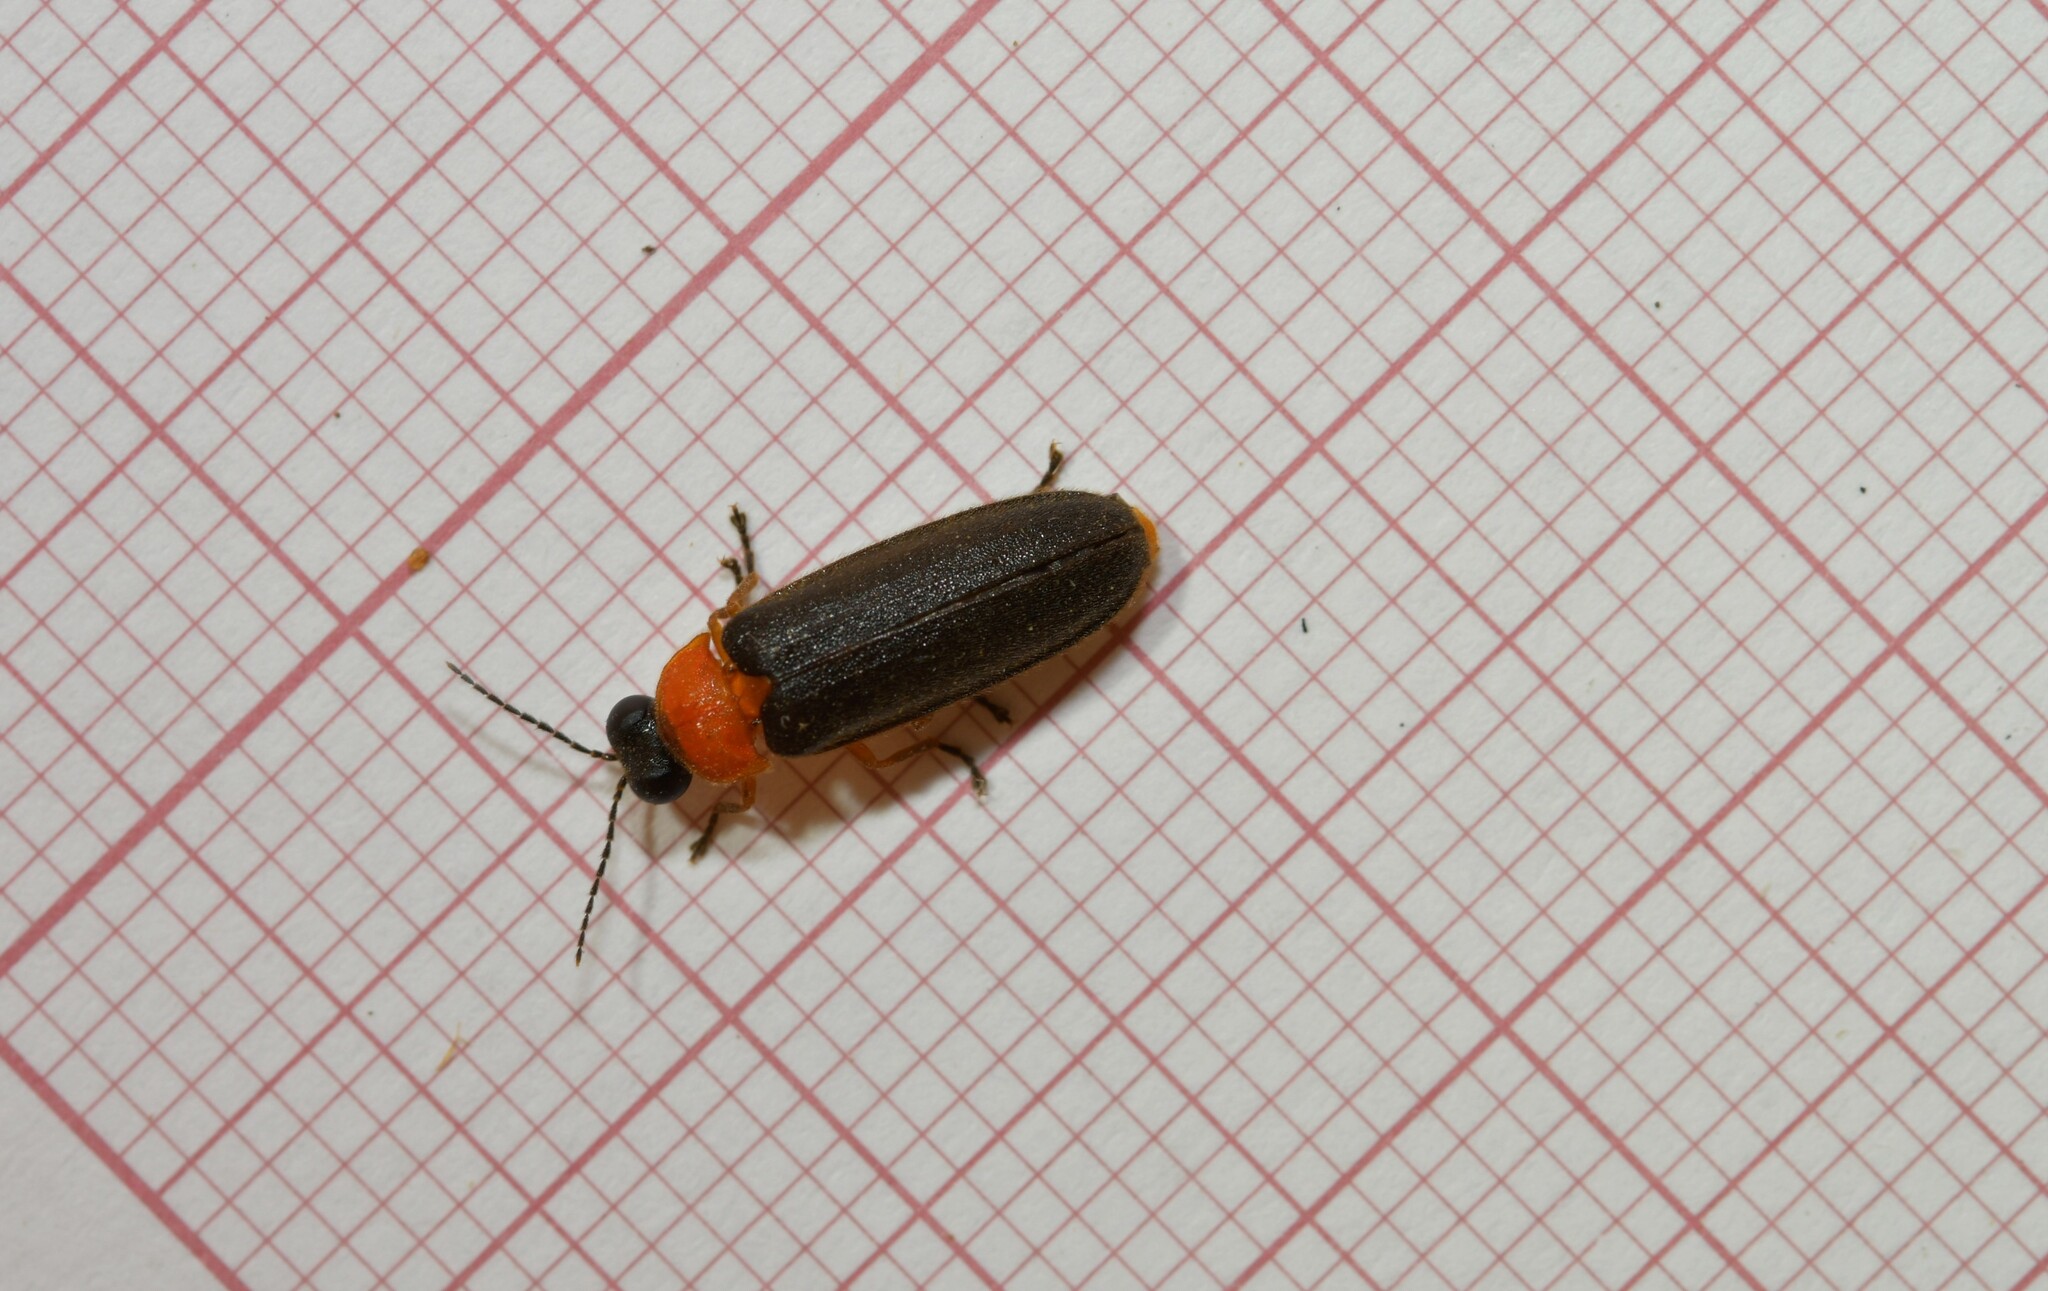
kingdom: Animalia
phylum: Arthropoda
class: Insecta
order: Coleoptera
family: Lampyridae
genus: Luciola
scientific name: Luciola lusitanica
